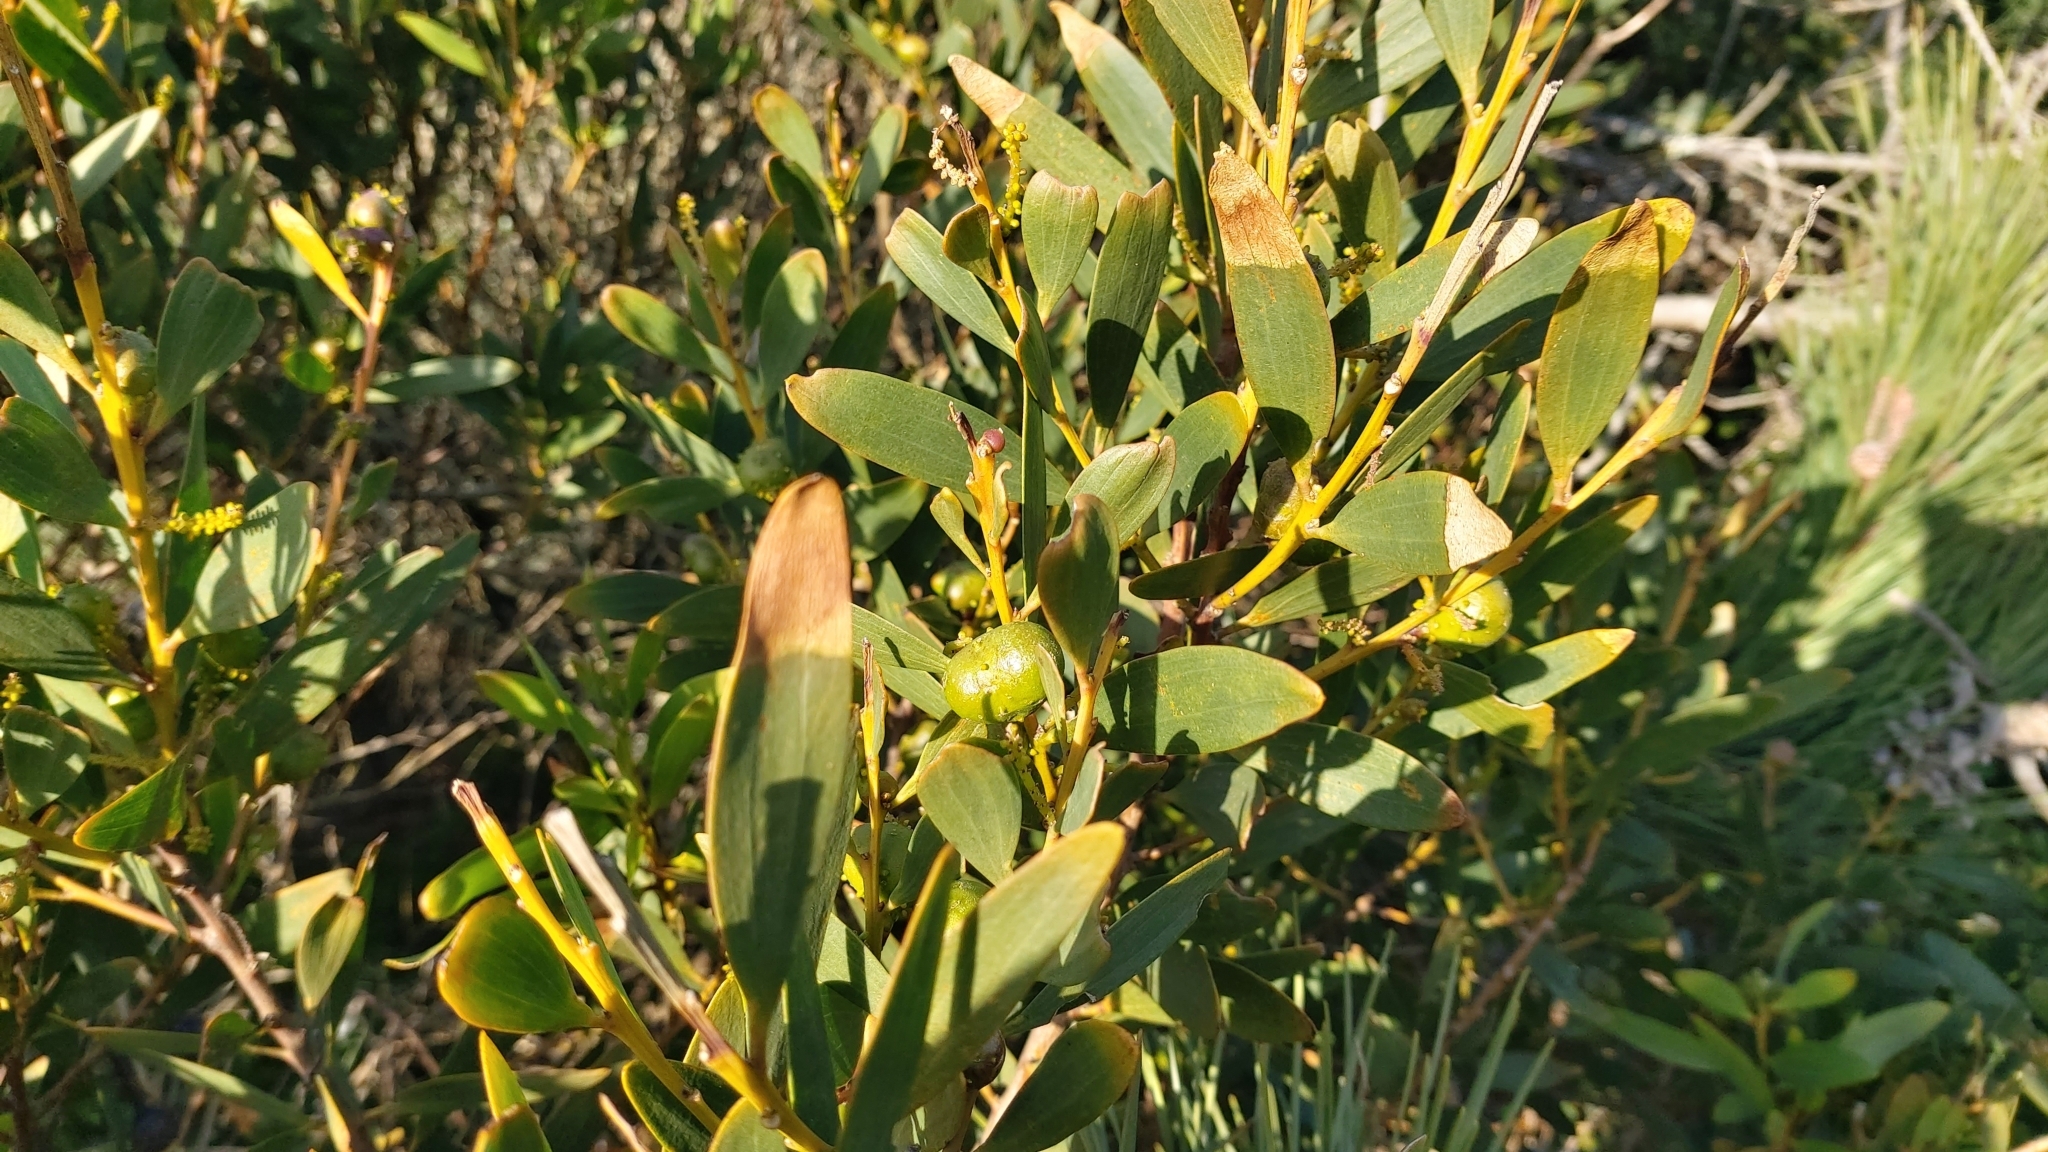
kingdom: Plantae
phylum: Tracheophyta
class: Magnoliopsida
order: Fabales
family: Fabaceae
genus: Acacia
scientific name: Acacia longifolia
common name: Sydney golden wattle
